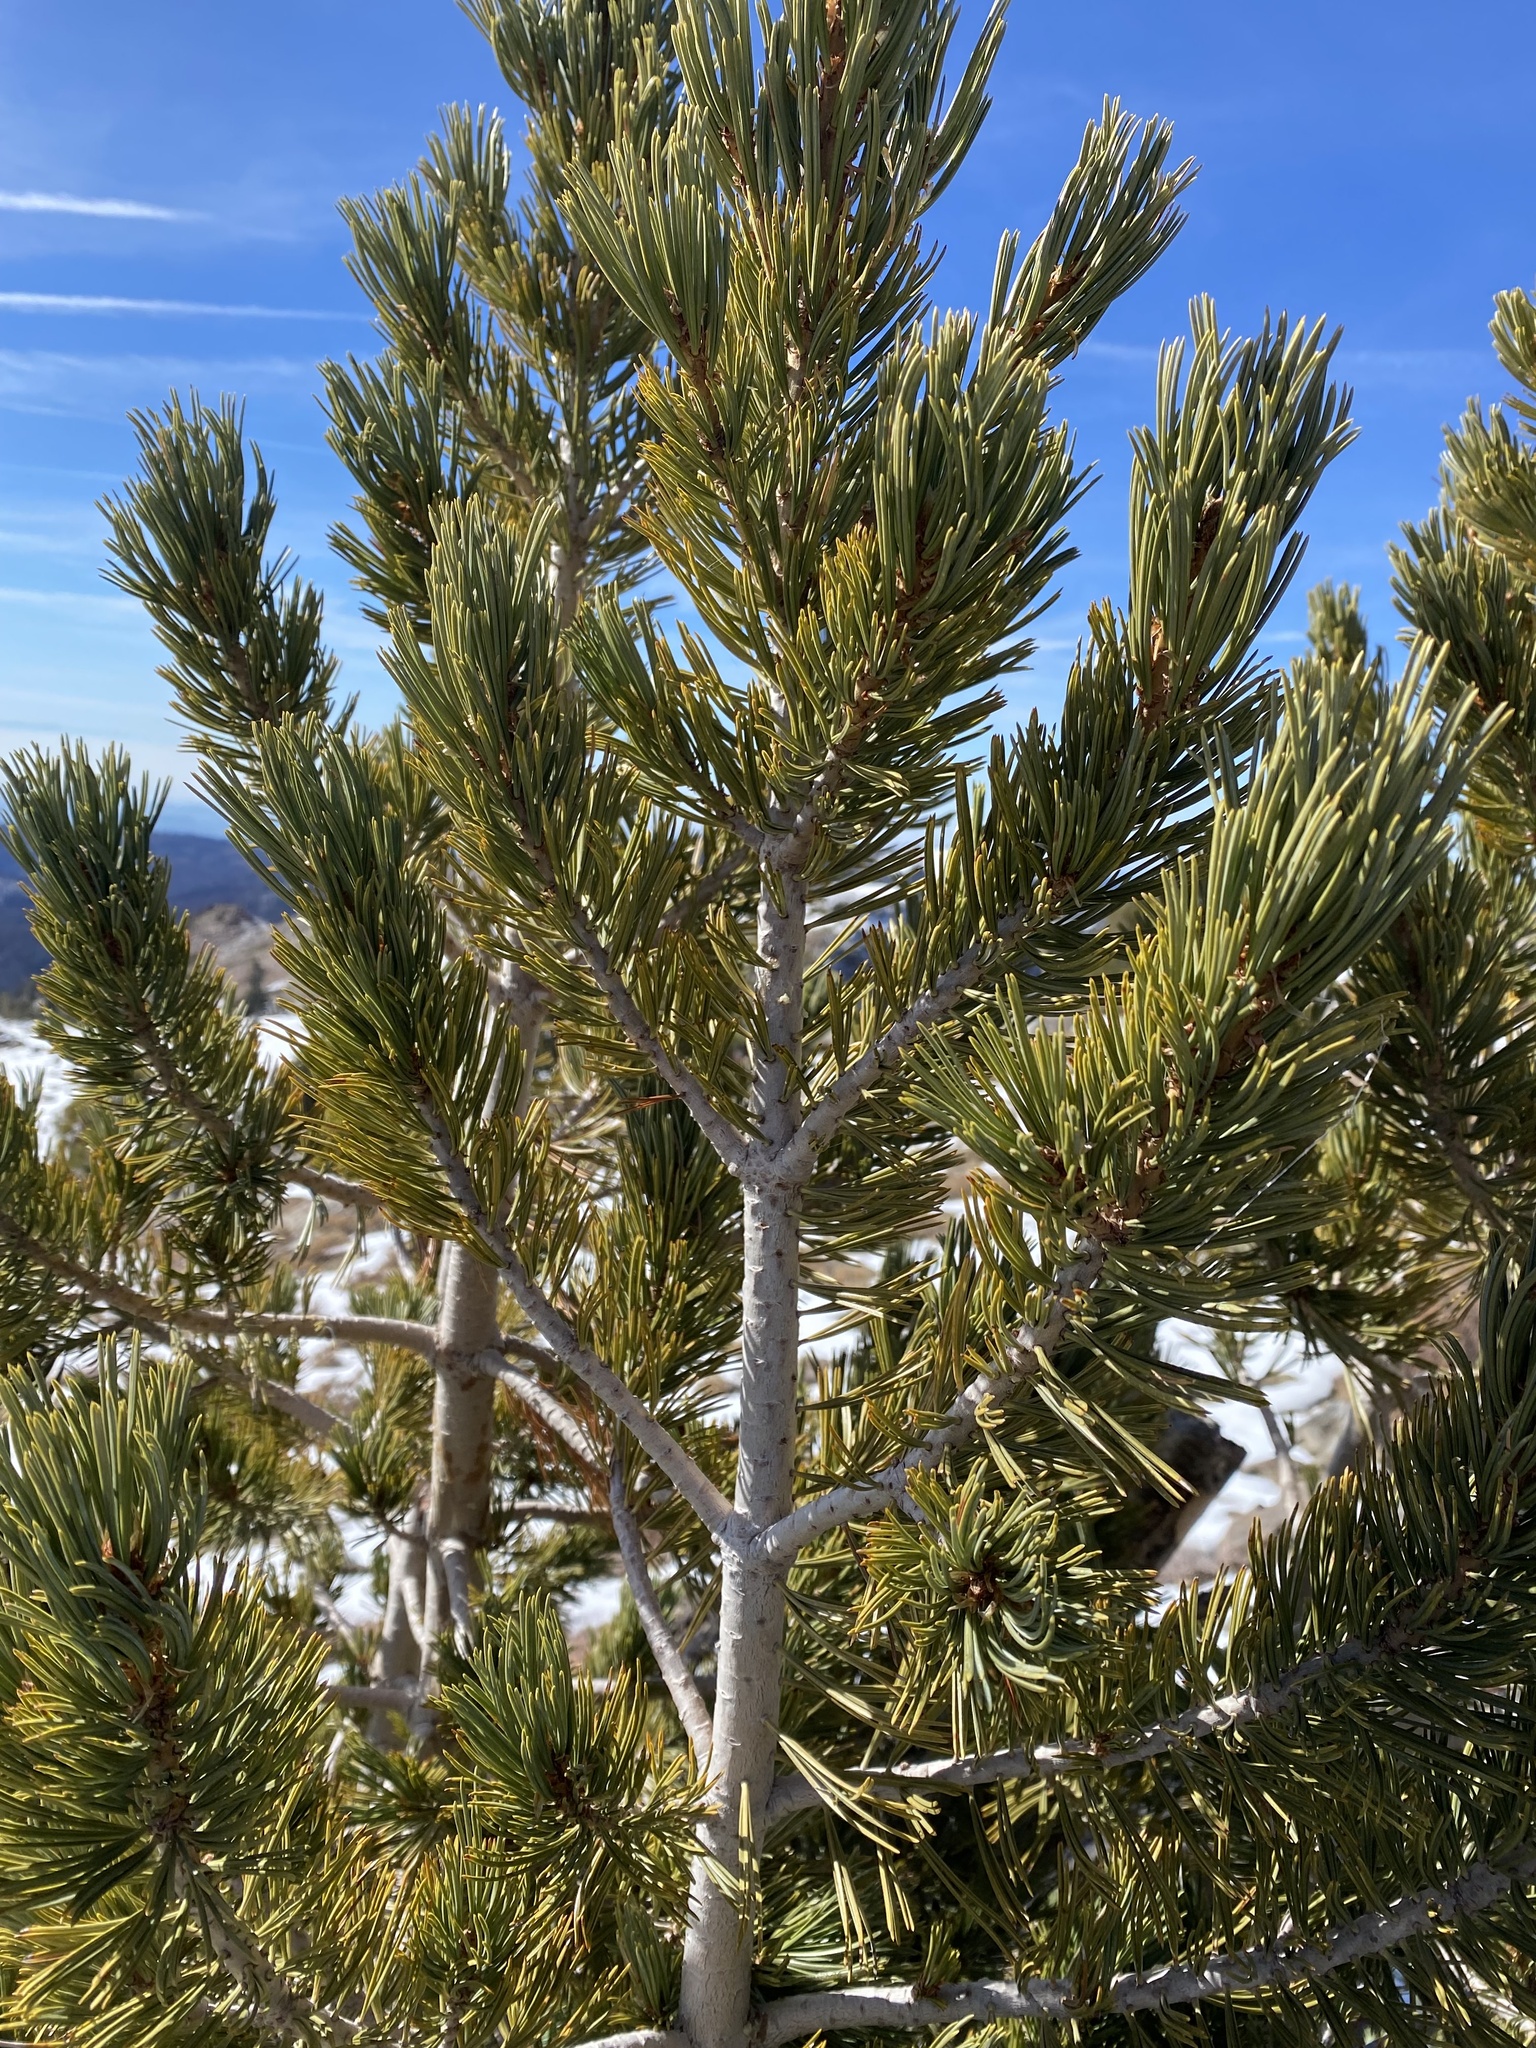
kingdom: Plantae
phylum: Tracheophyta
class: Pinopsida
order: Pinales
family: Pinaceae
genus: Pinus
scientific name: Pinus albicaulis
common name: Whitebark pine
